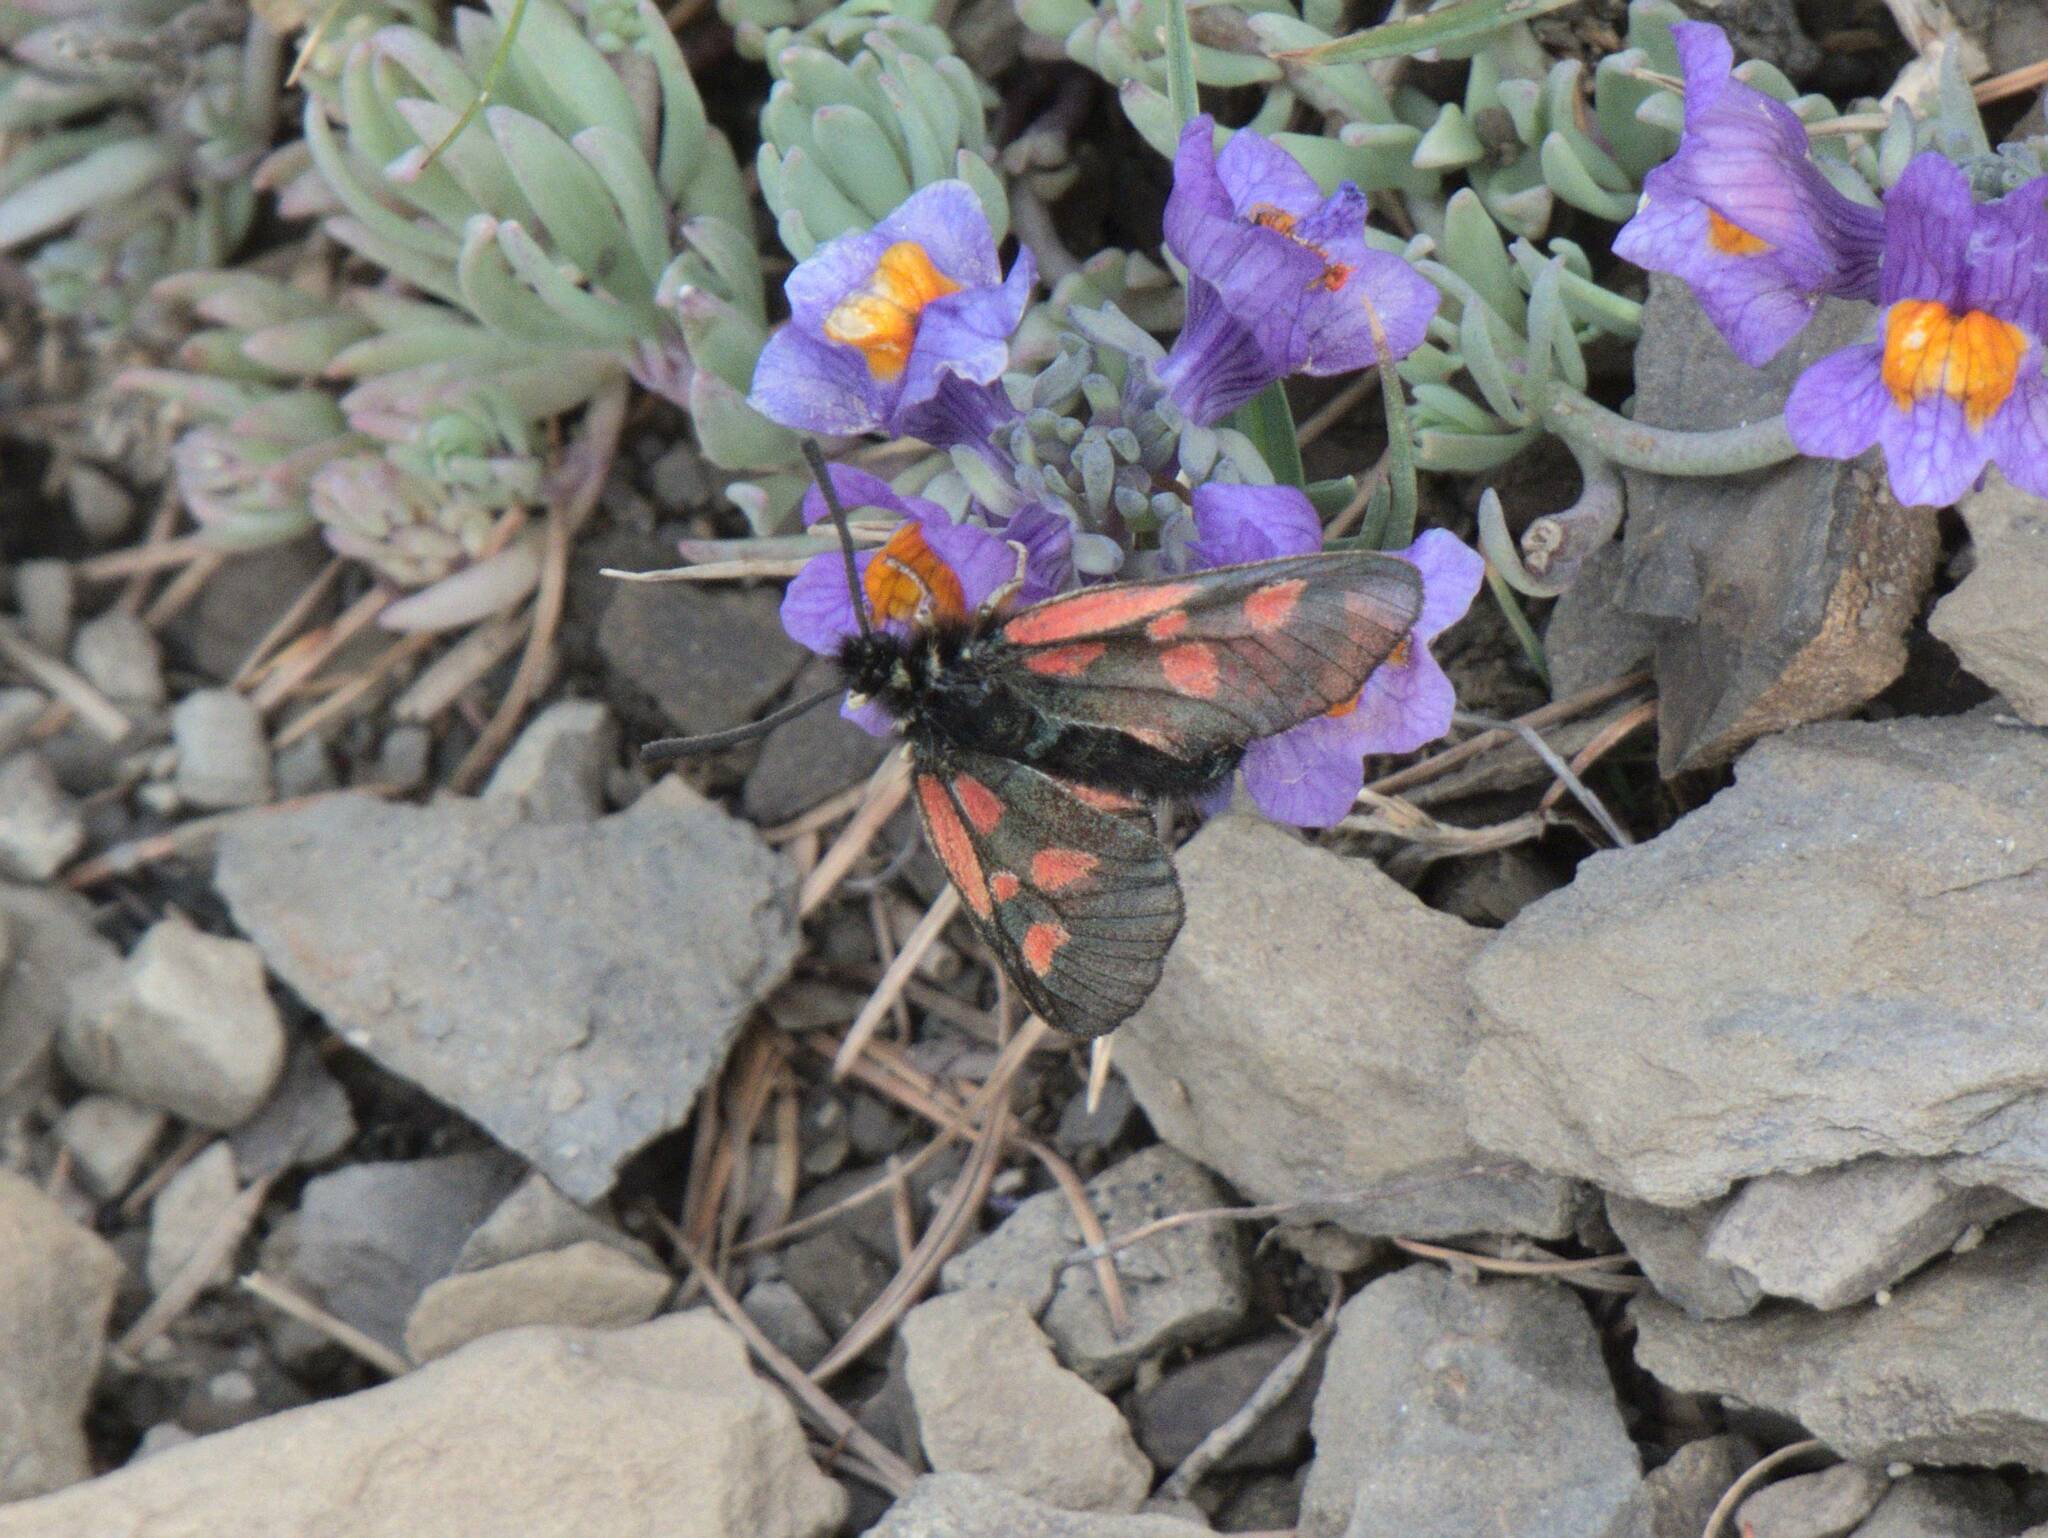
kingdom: Animalia
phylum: Arthropoda
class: Insecta
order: Lepidoptera
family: Zygaenidae
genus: Zygaena
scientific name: Zygaena exulans
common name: Scotch burnet
